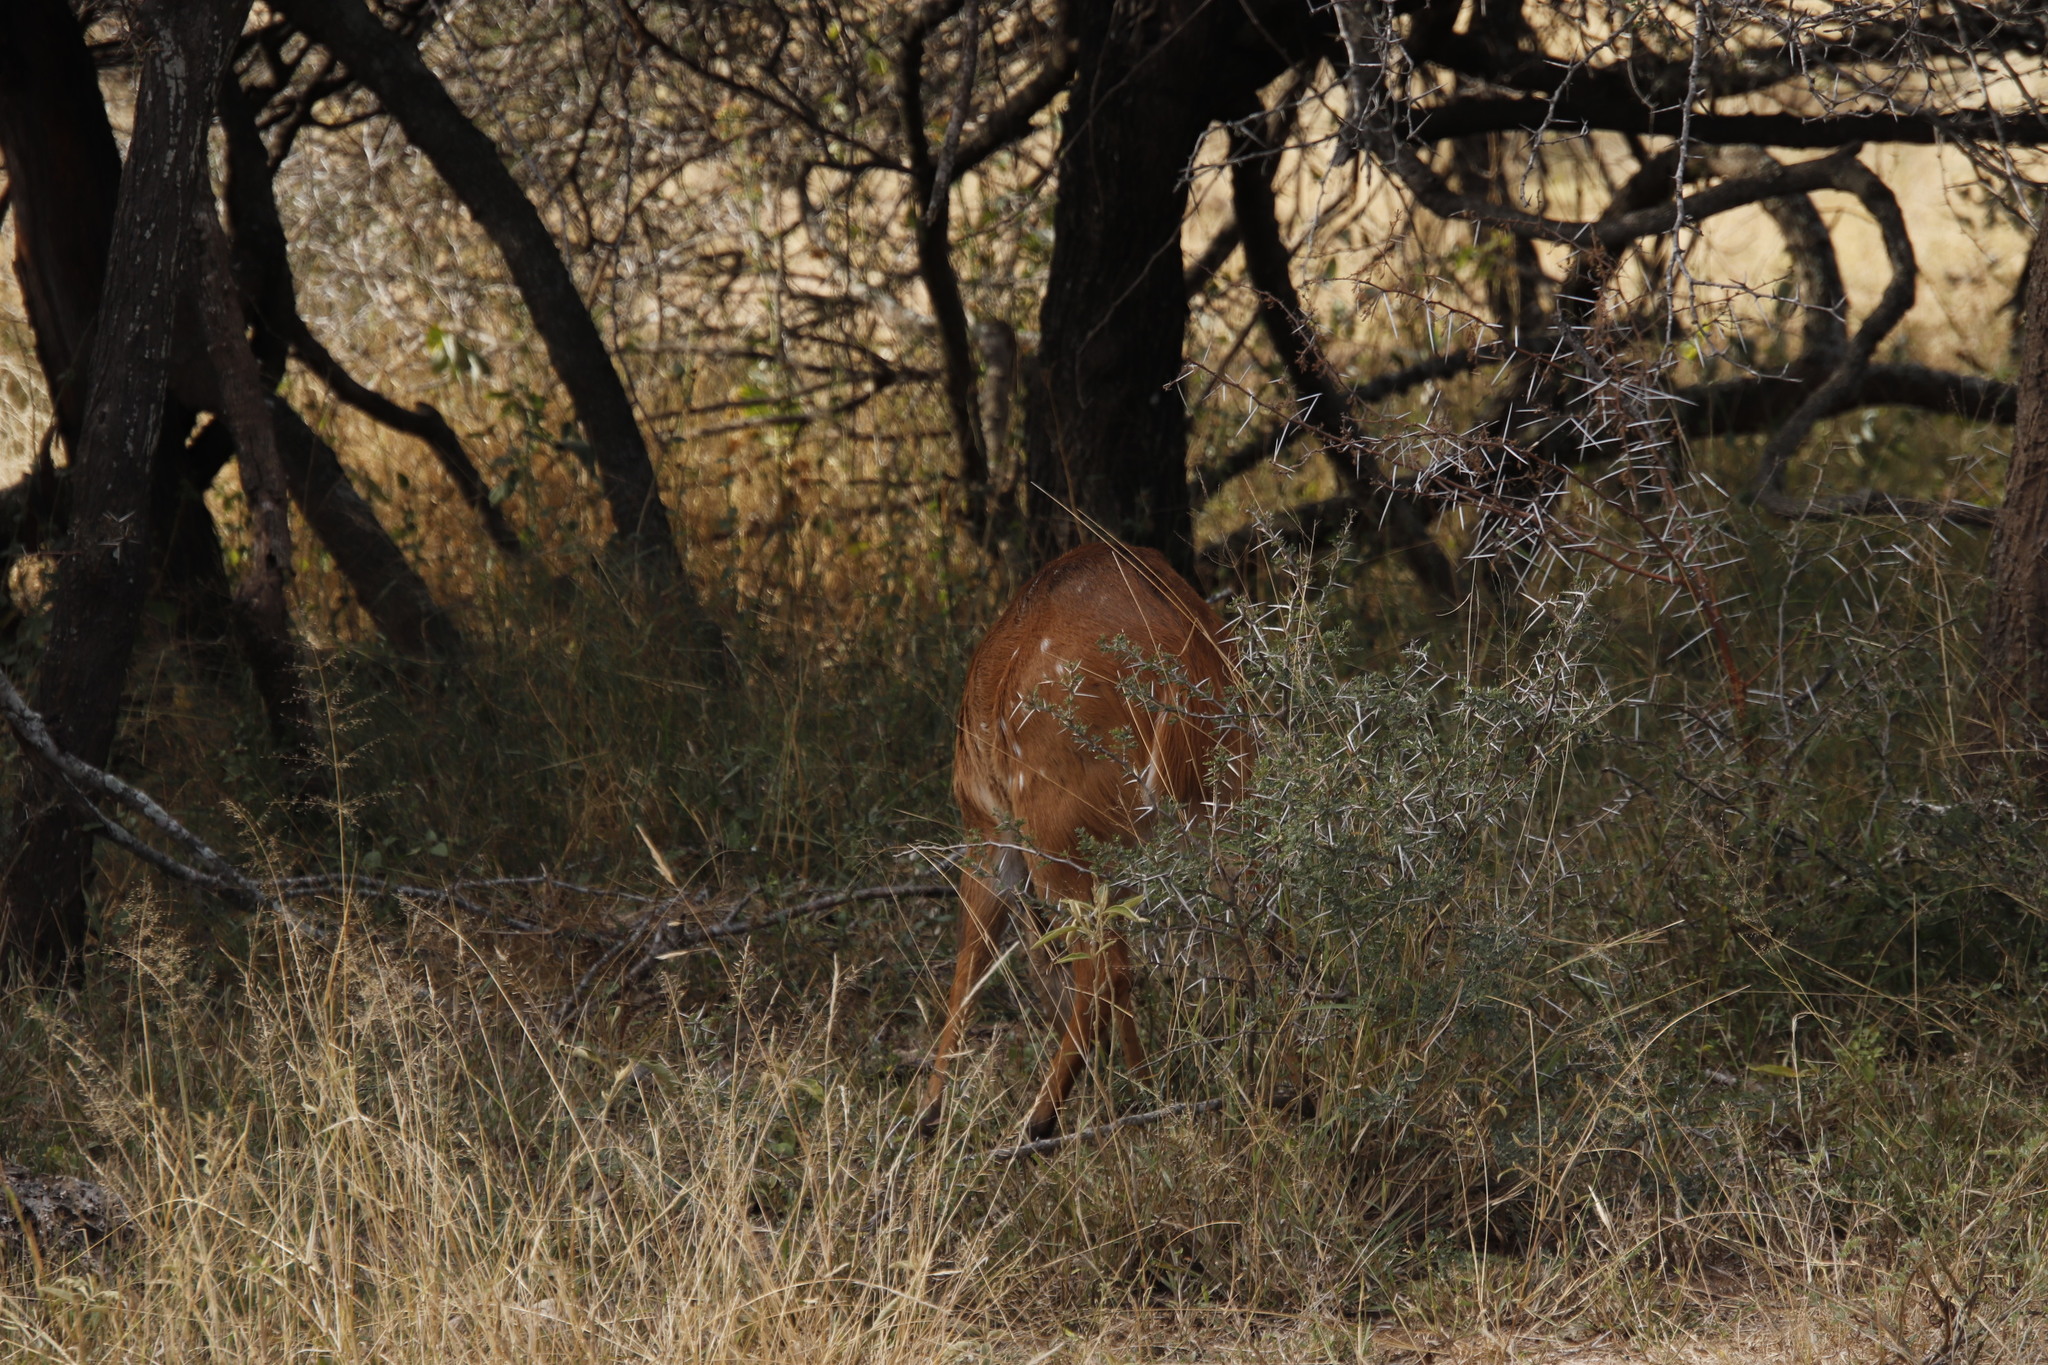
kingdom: Animalia
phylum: Chordata
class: Mammalia
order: Artiodactyla
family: Bovidae
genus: Tragelaphus
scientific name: Tragelaphus scriptus
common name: Bushbuck
